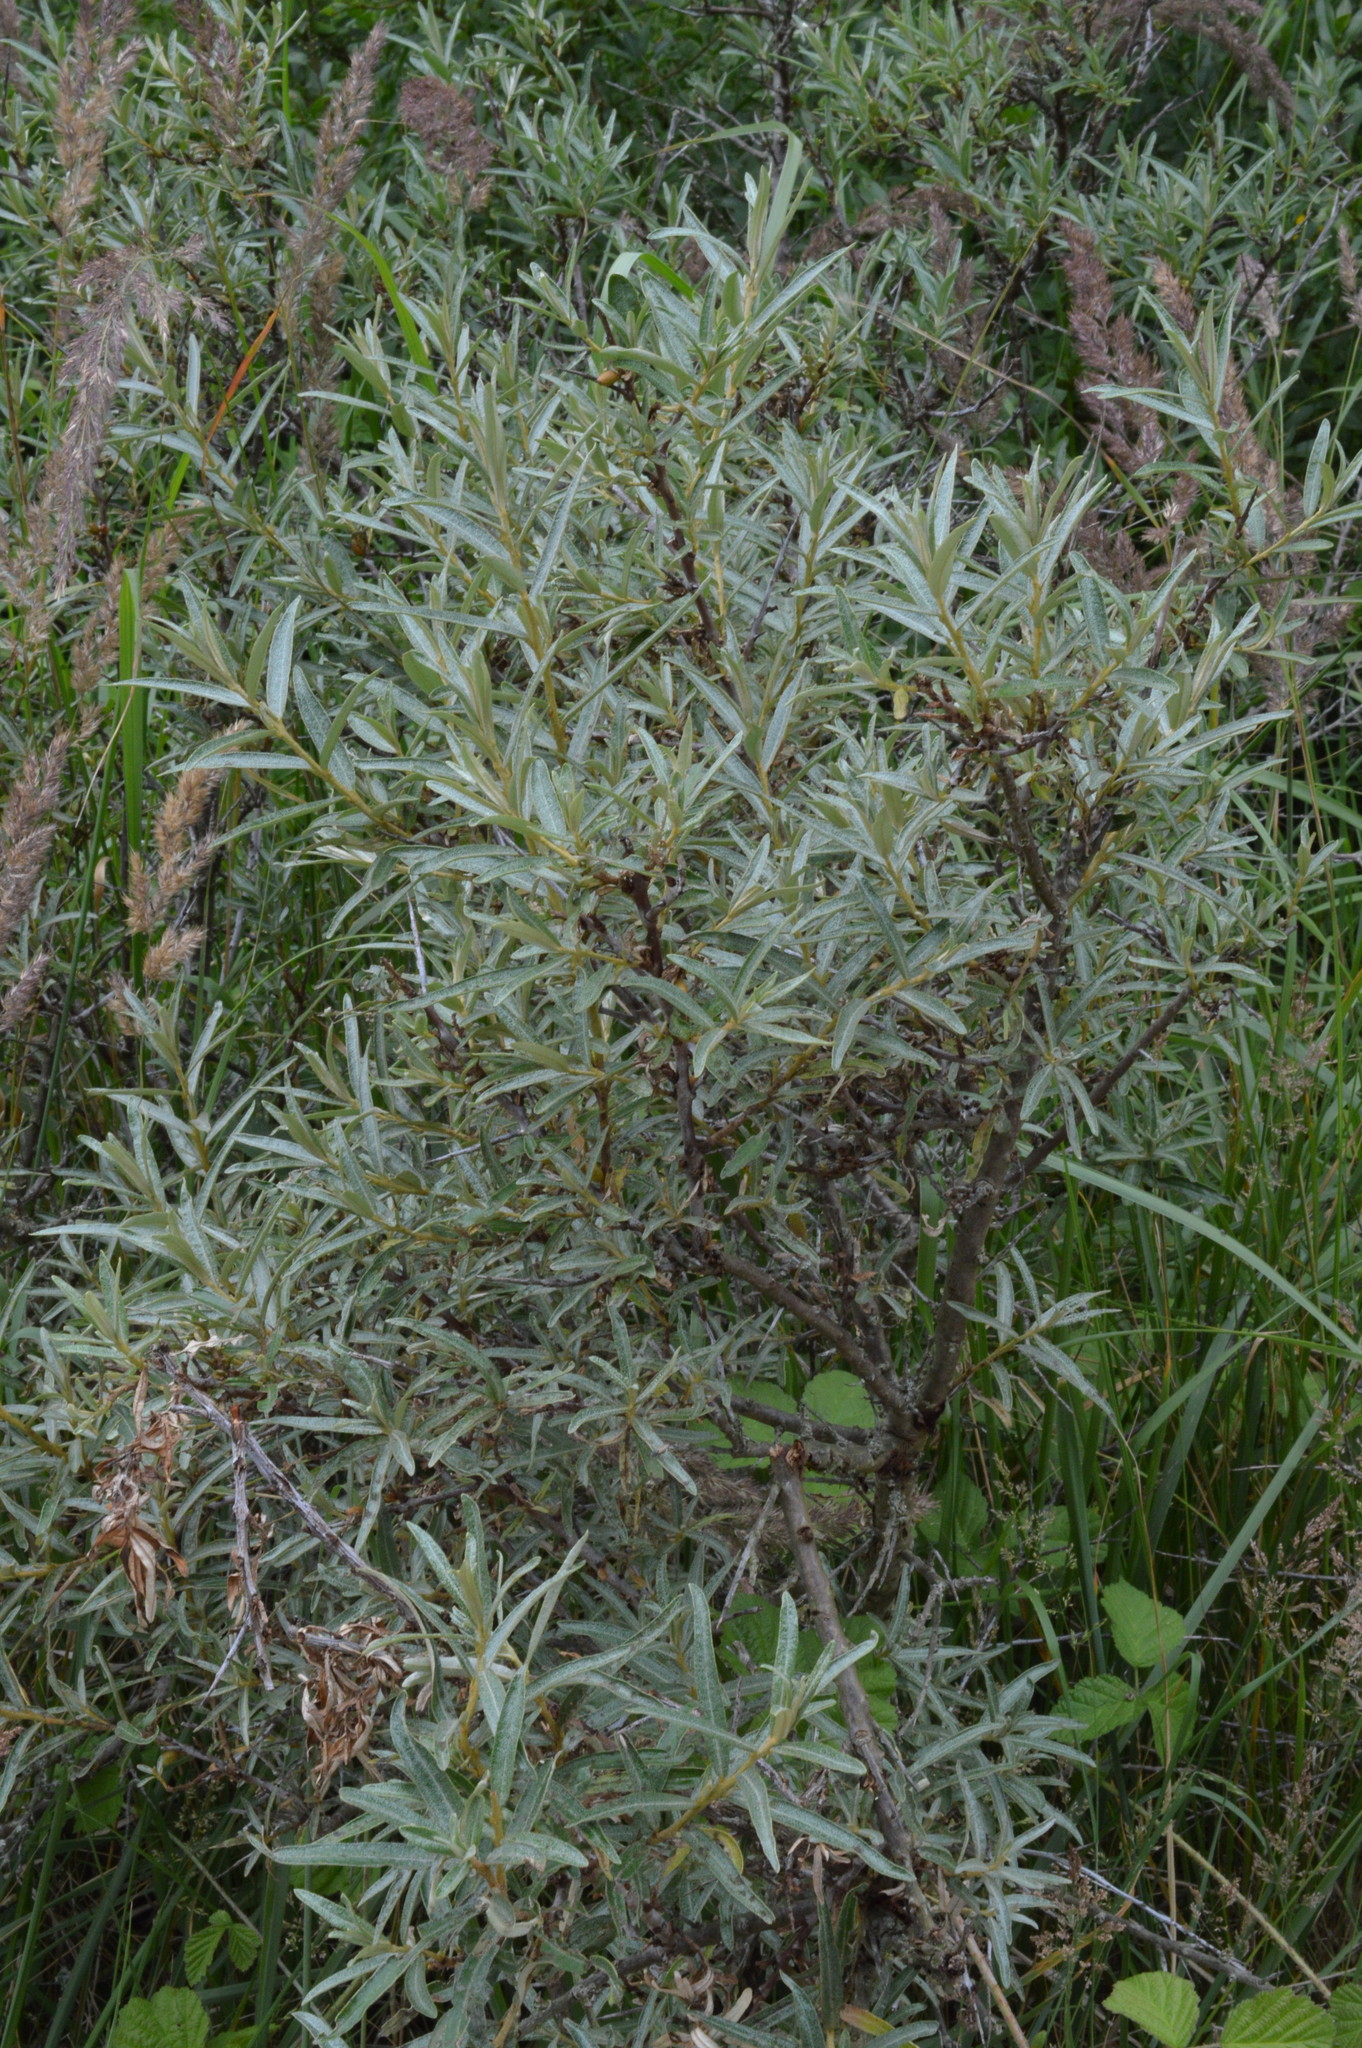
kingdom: Plantae
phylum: Tracheophyta
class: Magnoliopsida
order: Rosales
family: Elaeagnaceae
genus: Hippophae
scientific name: Hippophae rhamnoides
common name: Sea-buckthorn
